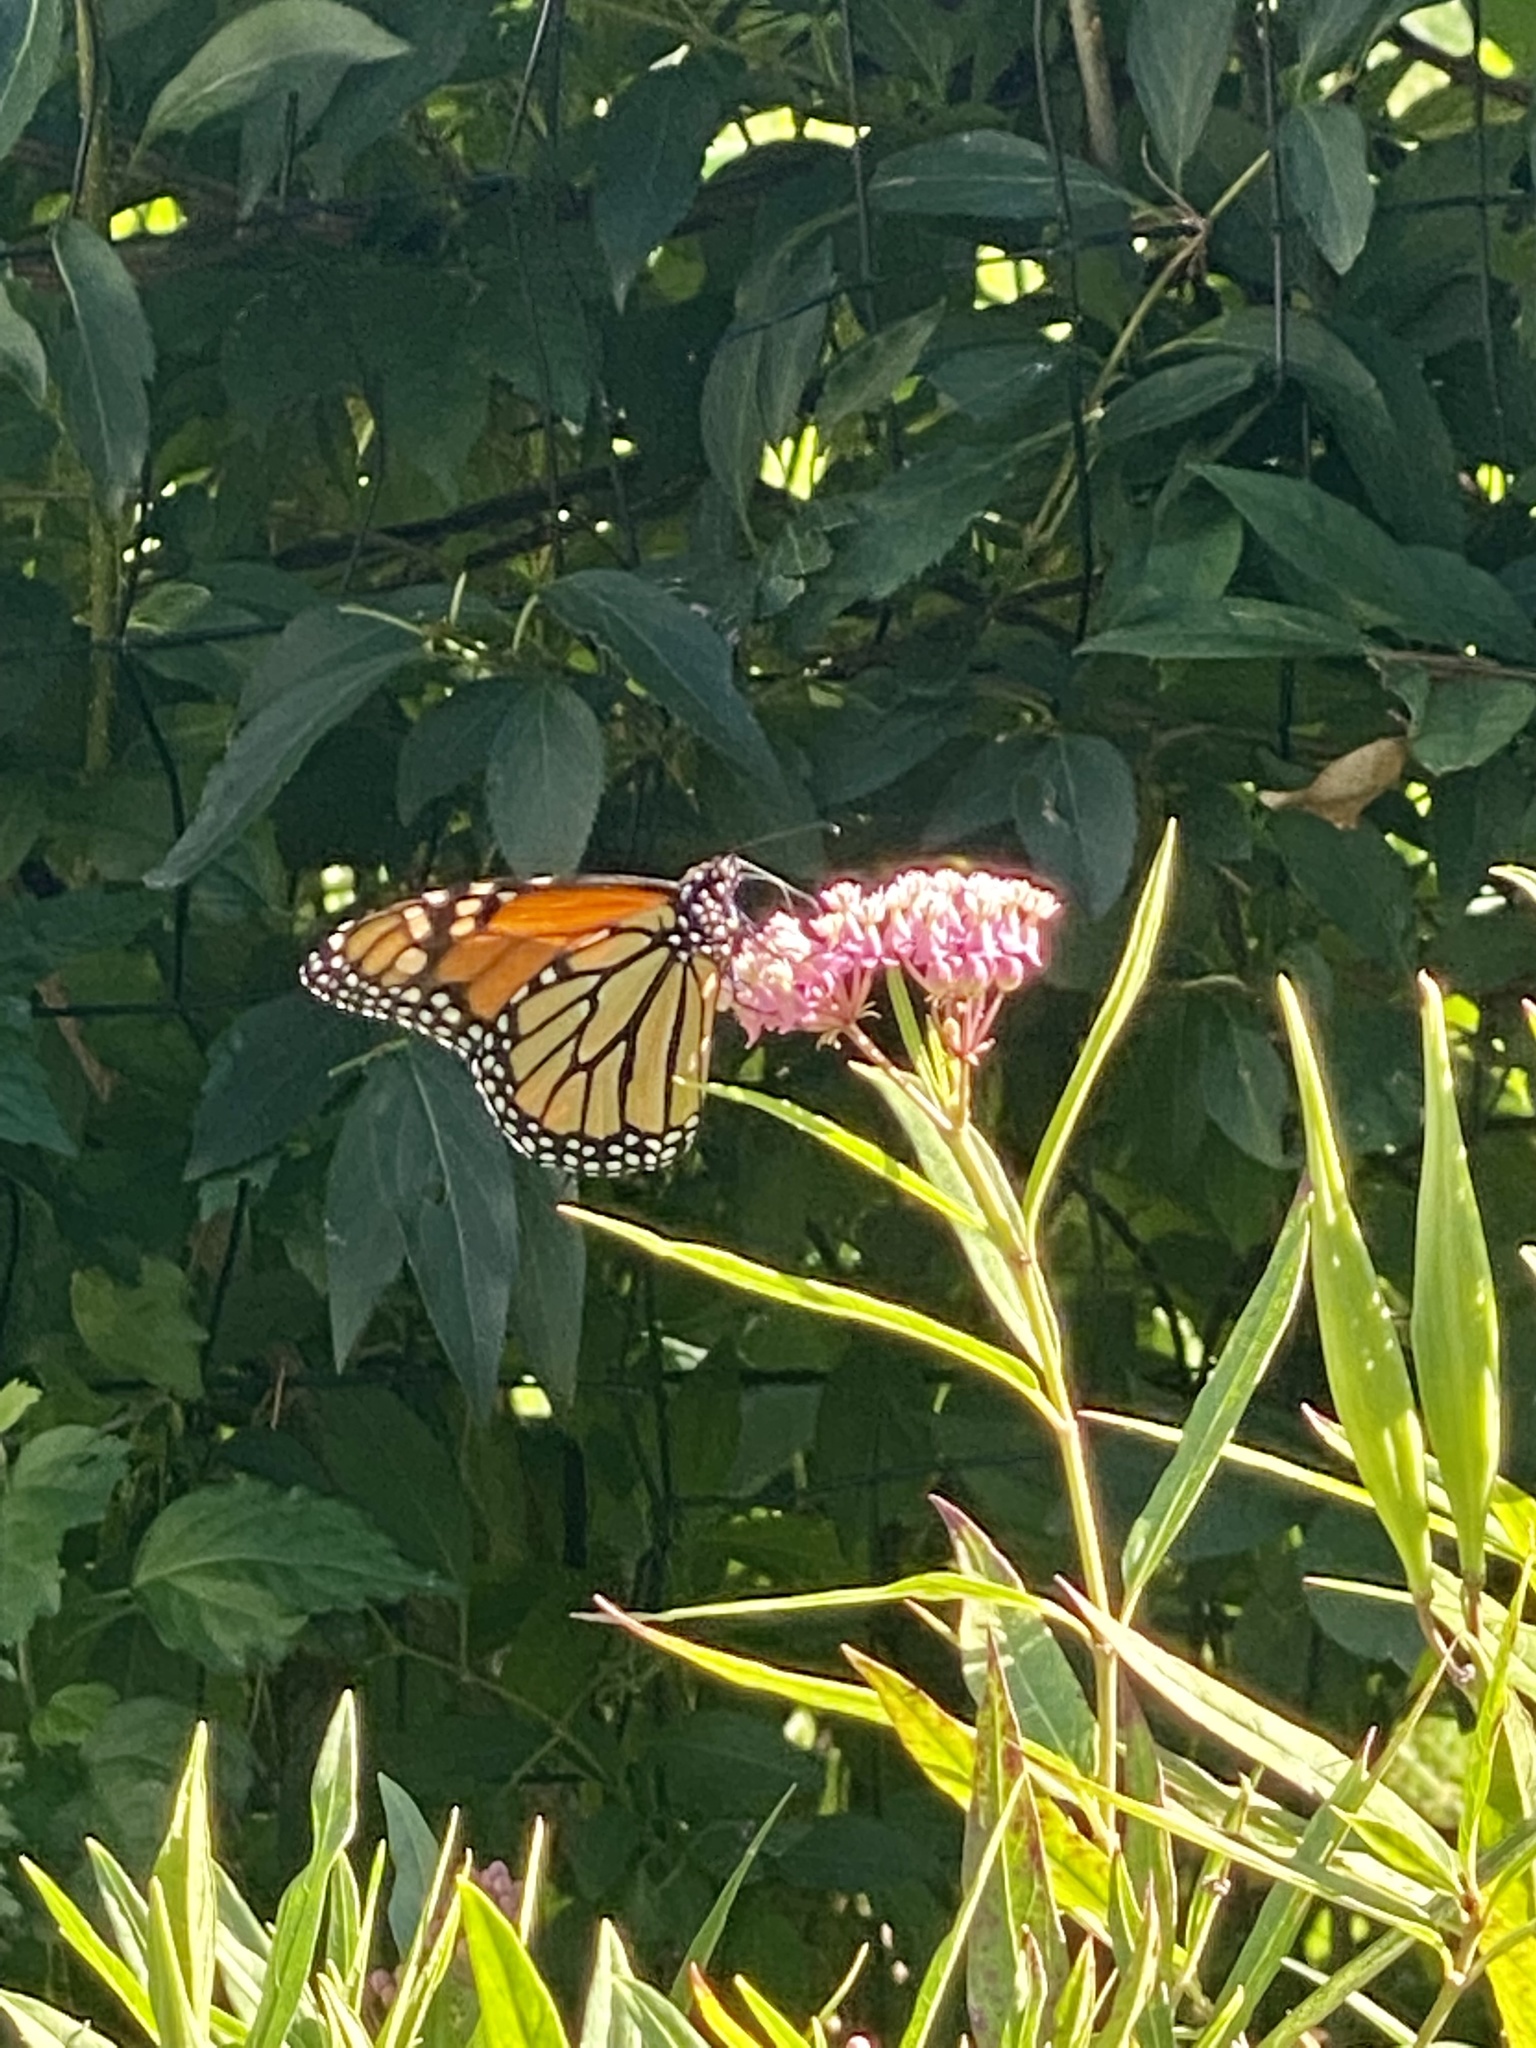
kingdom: Animalia
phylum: Arthropoda
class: Insecta
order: Lepidoptera
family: Nymphalidae
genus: Danaus
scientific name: Danaus plexippus
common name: Monarch
